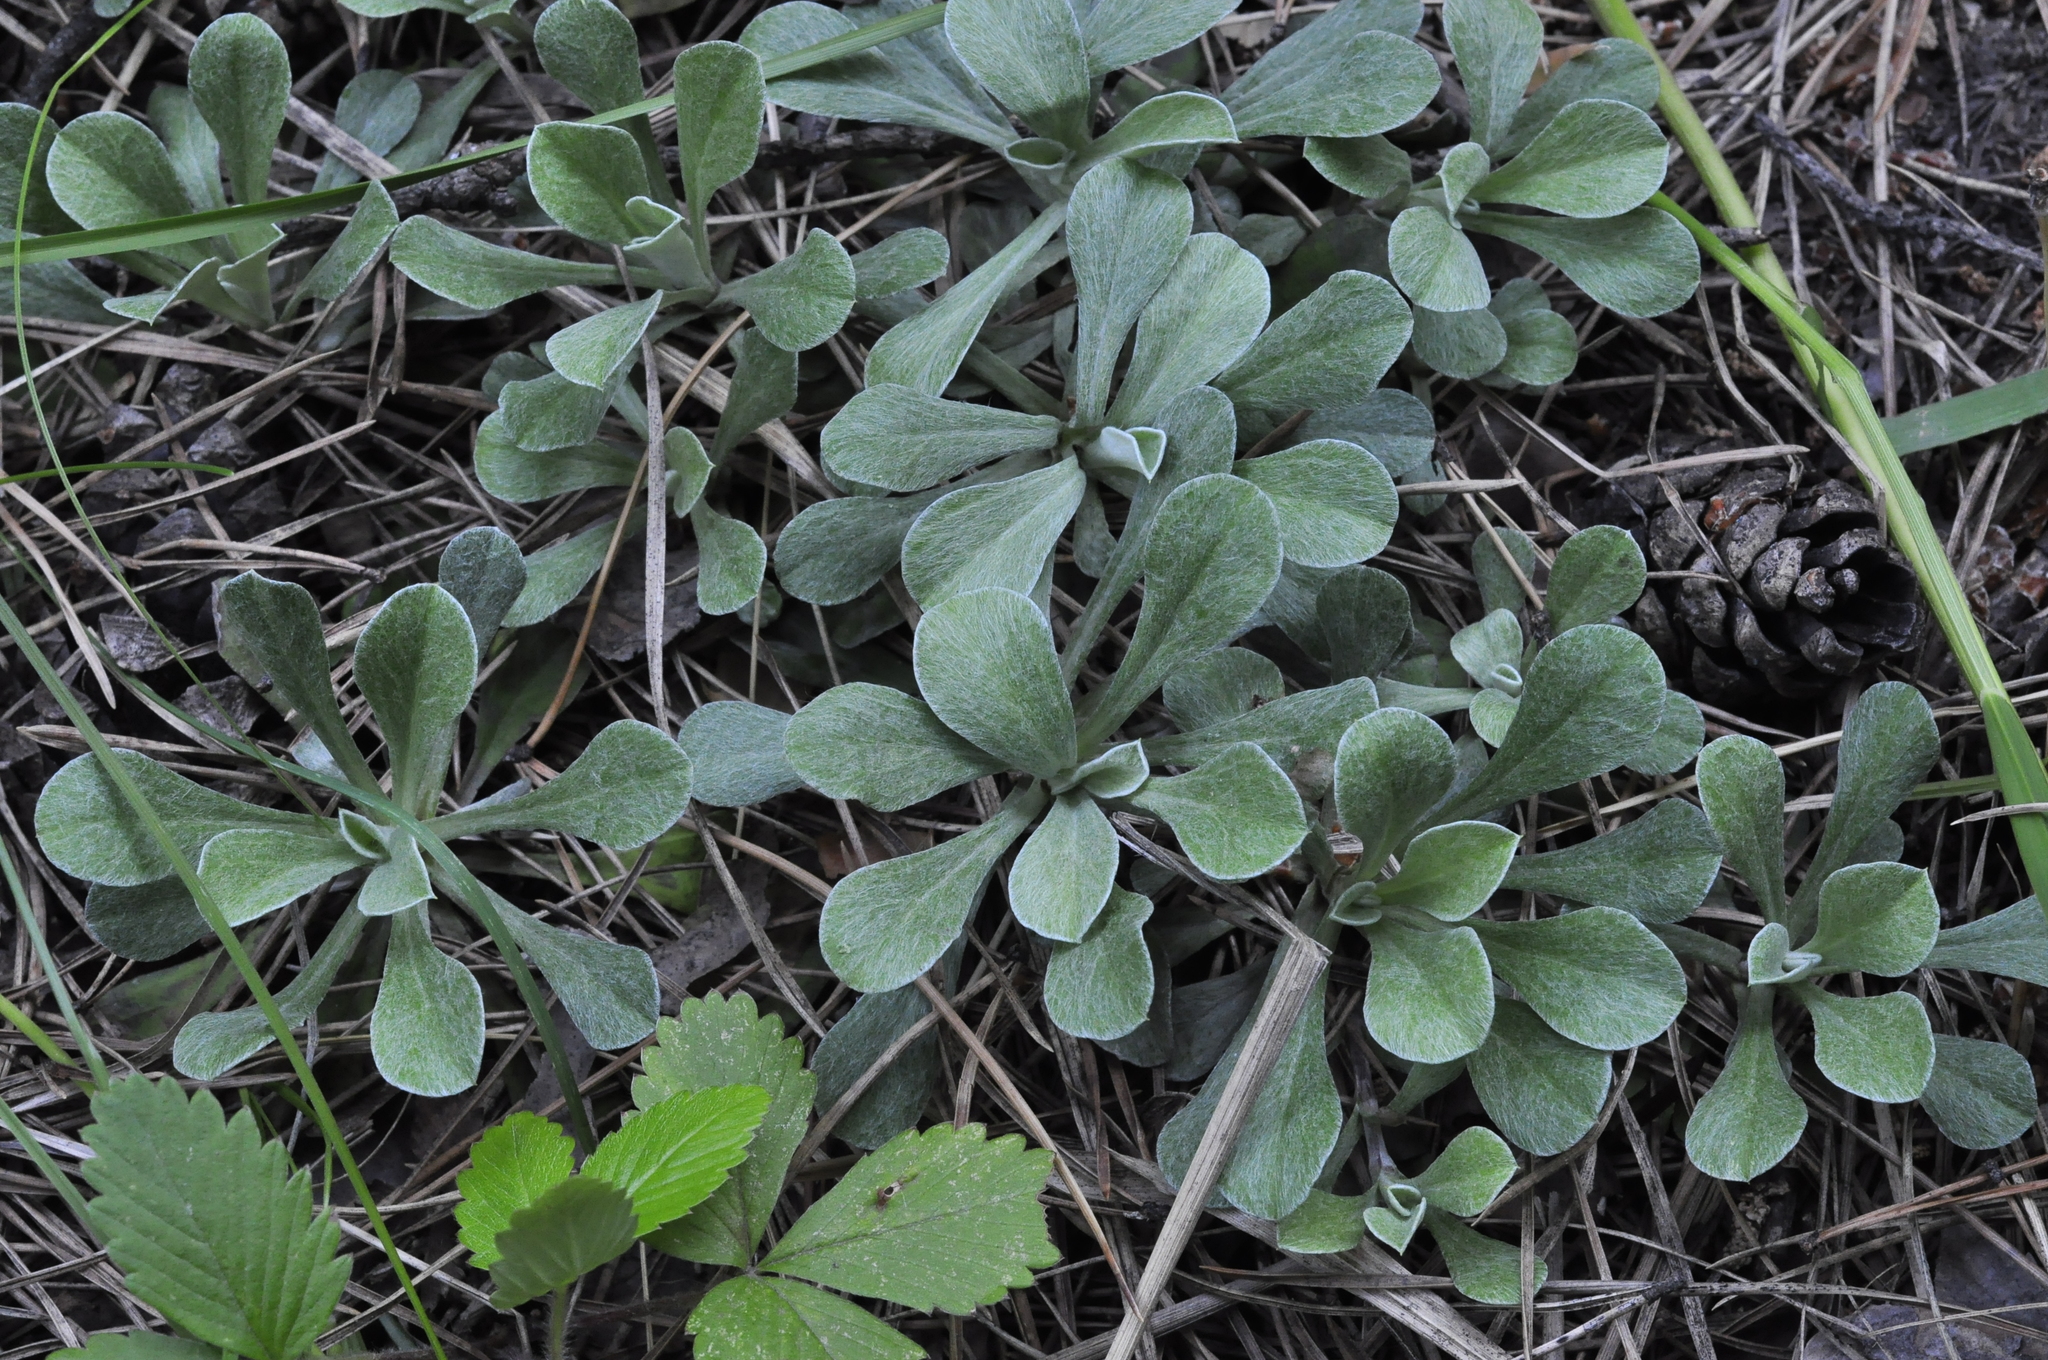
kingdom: Plantae
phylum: Tracheophyta
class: Magnoliopsida
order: Asterales
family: Asteraceae
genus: Antennaria
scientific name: Antennaria dioica
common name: Mountain everlasting
